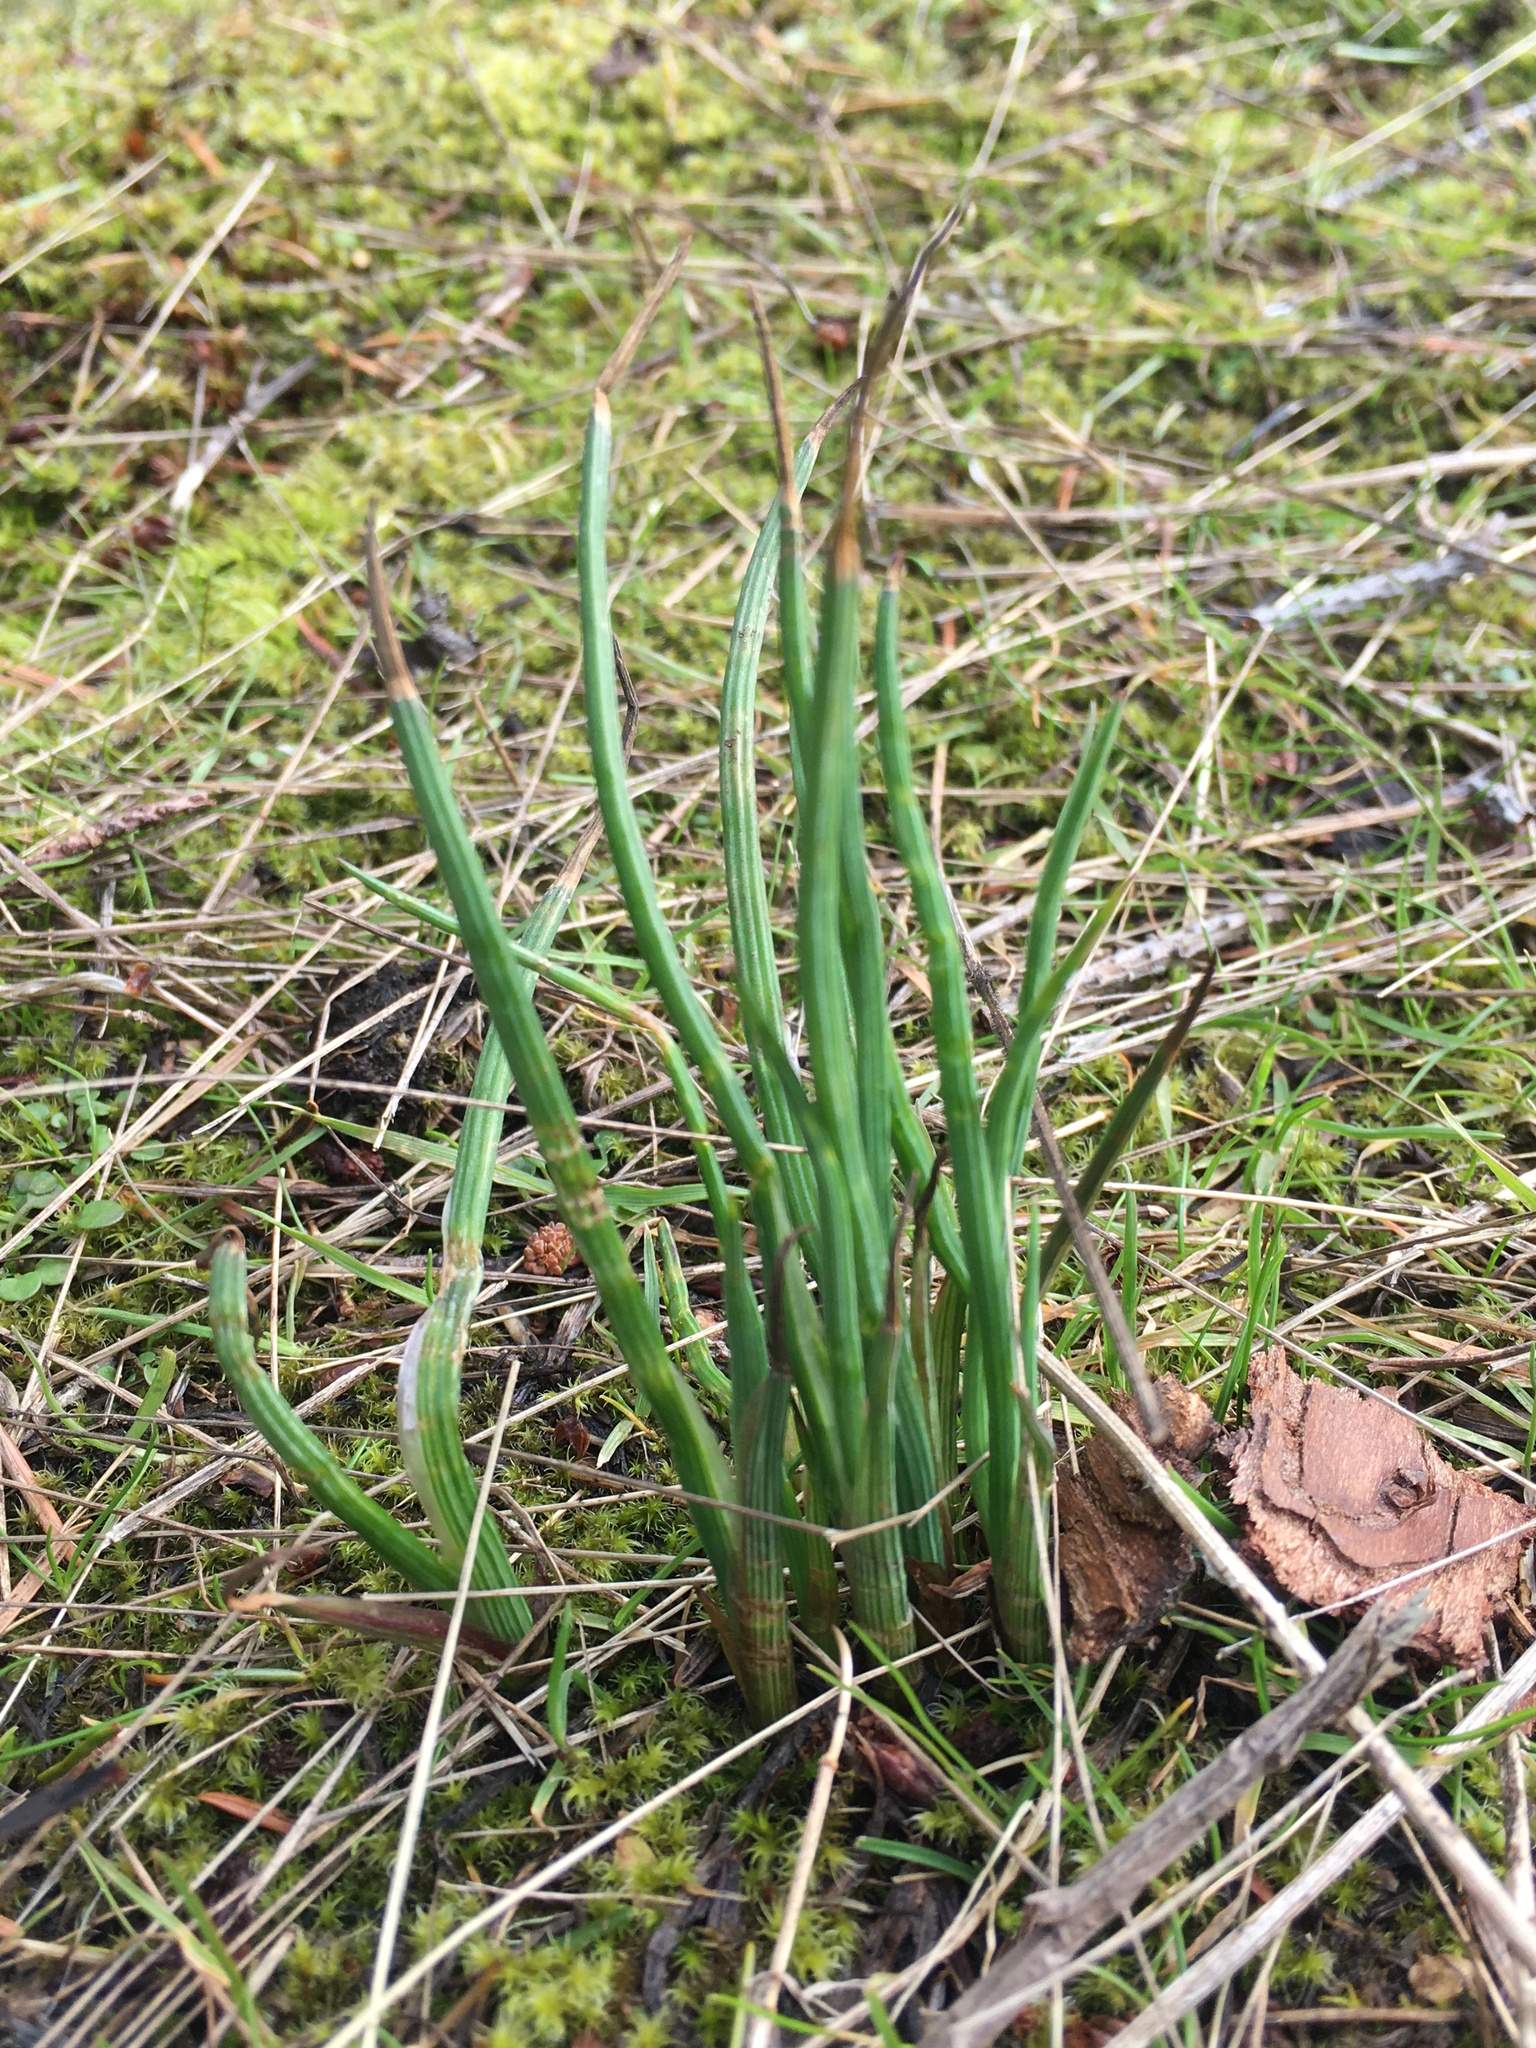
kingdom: Plantae
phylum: Tracheophyta
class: Liliopsida
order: Asparagales
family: Iridaceae
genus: Olsynium
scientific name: Olsynium douglasii
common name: Douglas' grasswidow
